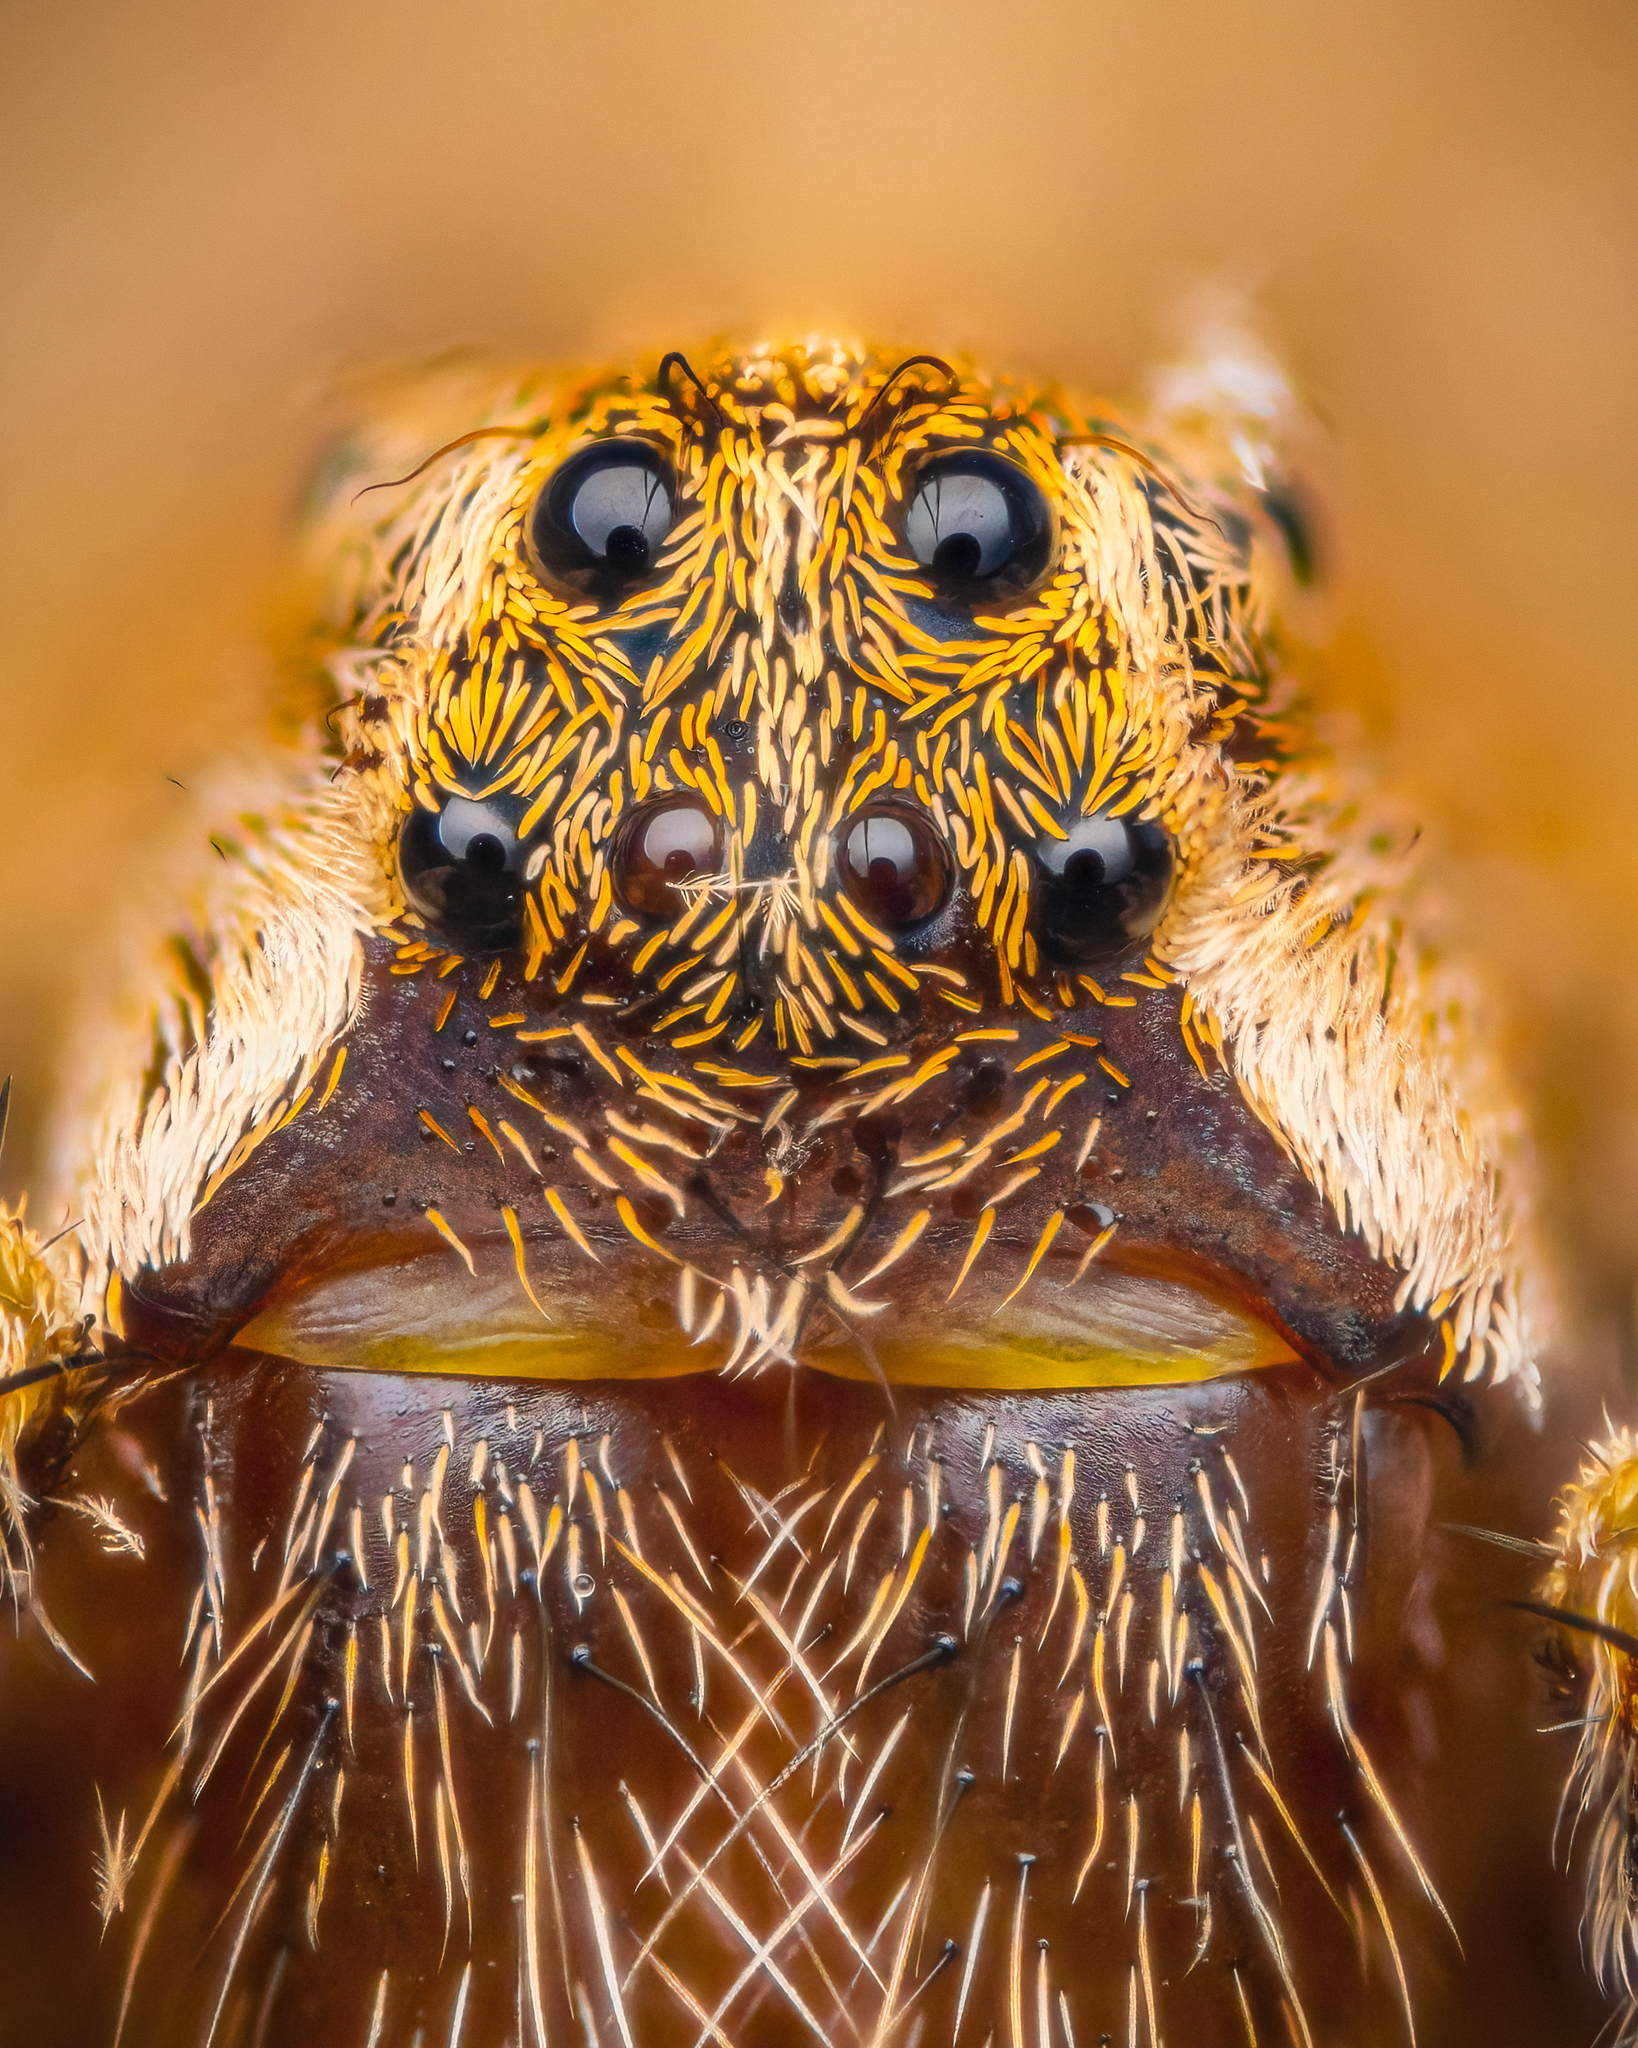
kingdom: Animalia
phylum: Arthropoda
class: Arachnida
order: Araneae
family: Pisauridae
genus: Pisaura
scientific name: Pisaura mirabilis
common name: Tent spider
